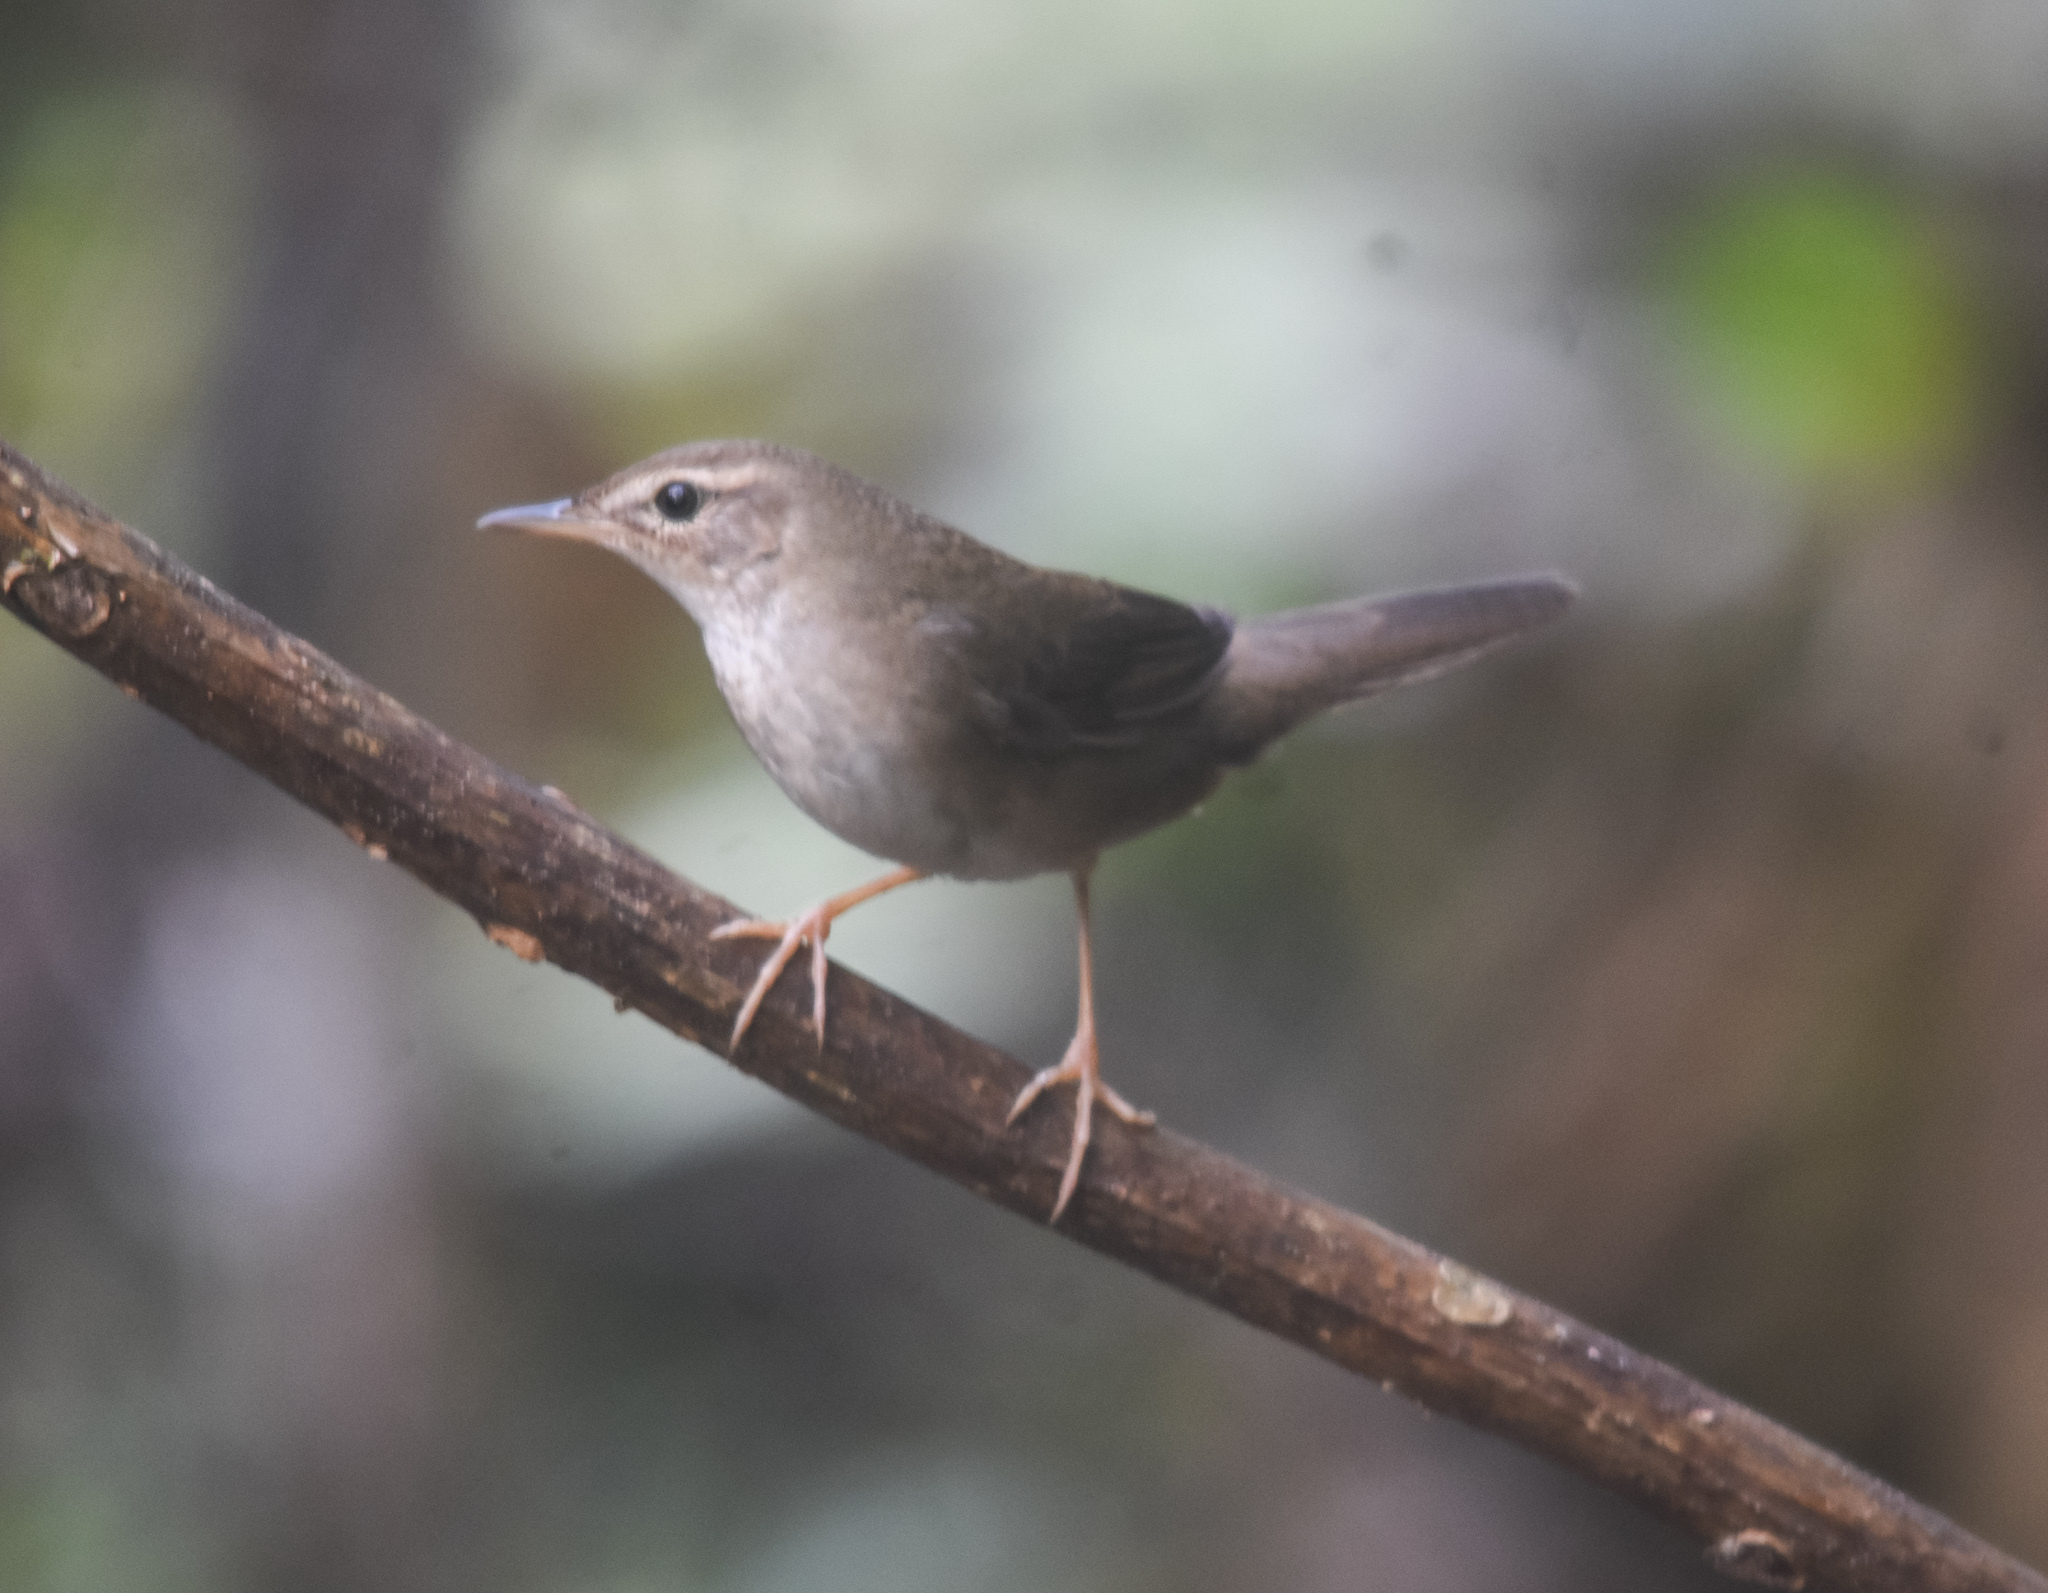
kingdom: Animalia
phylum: Chordata
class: Aves
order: Passeriformes
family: Locustellidae
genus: Locustella
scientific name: Locustella davidi
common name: Baikal bush warbler
